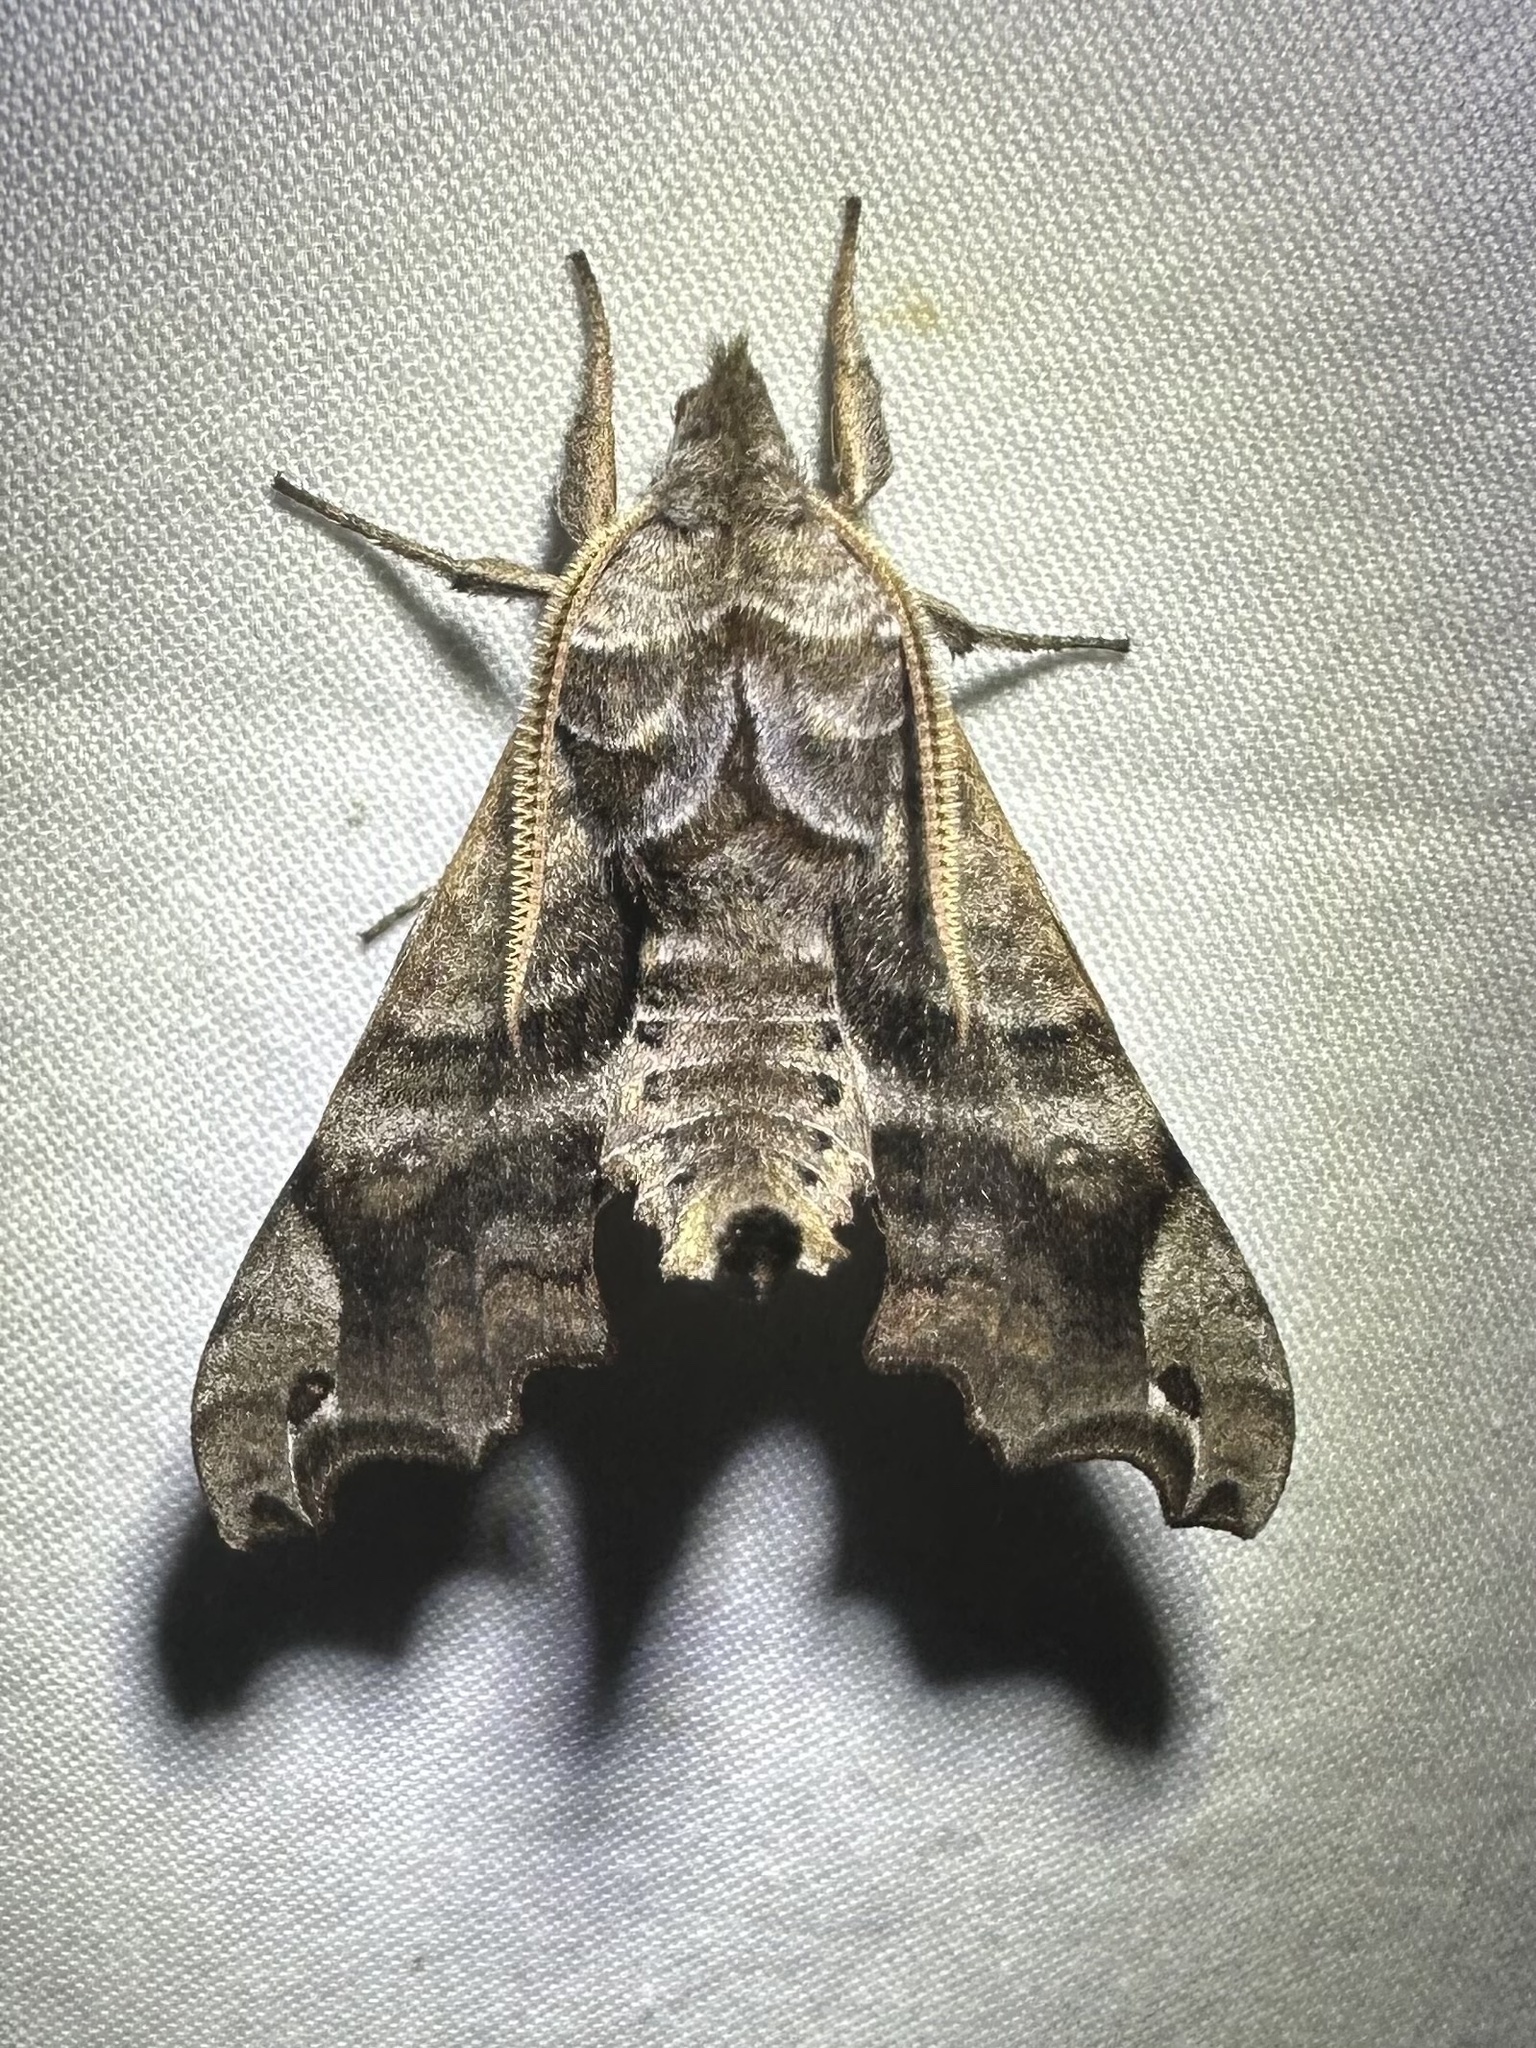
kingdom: Animalia
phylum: Arthropoda
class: Insecta
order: Lepidoptera
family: Sphingidae
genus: Deidamia
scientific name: Deidamia inscriptum
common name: Lettered sphinx
